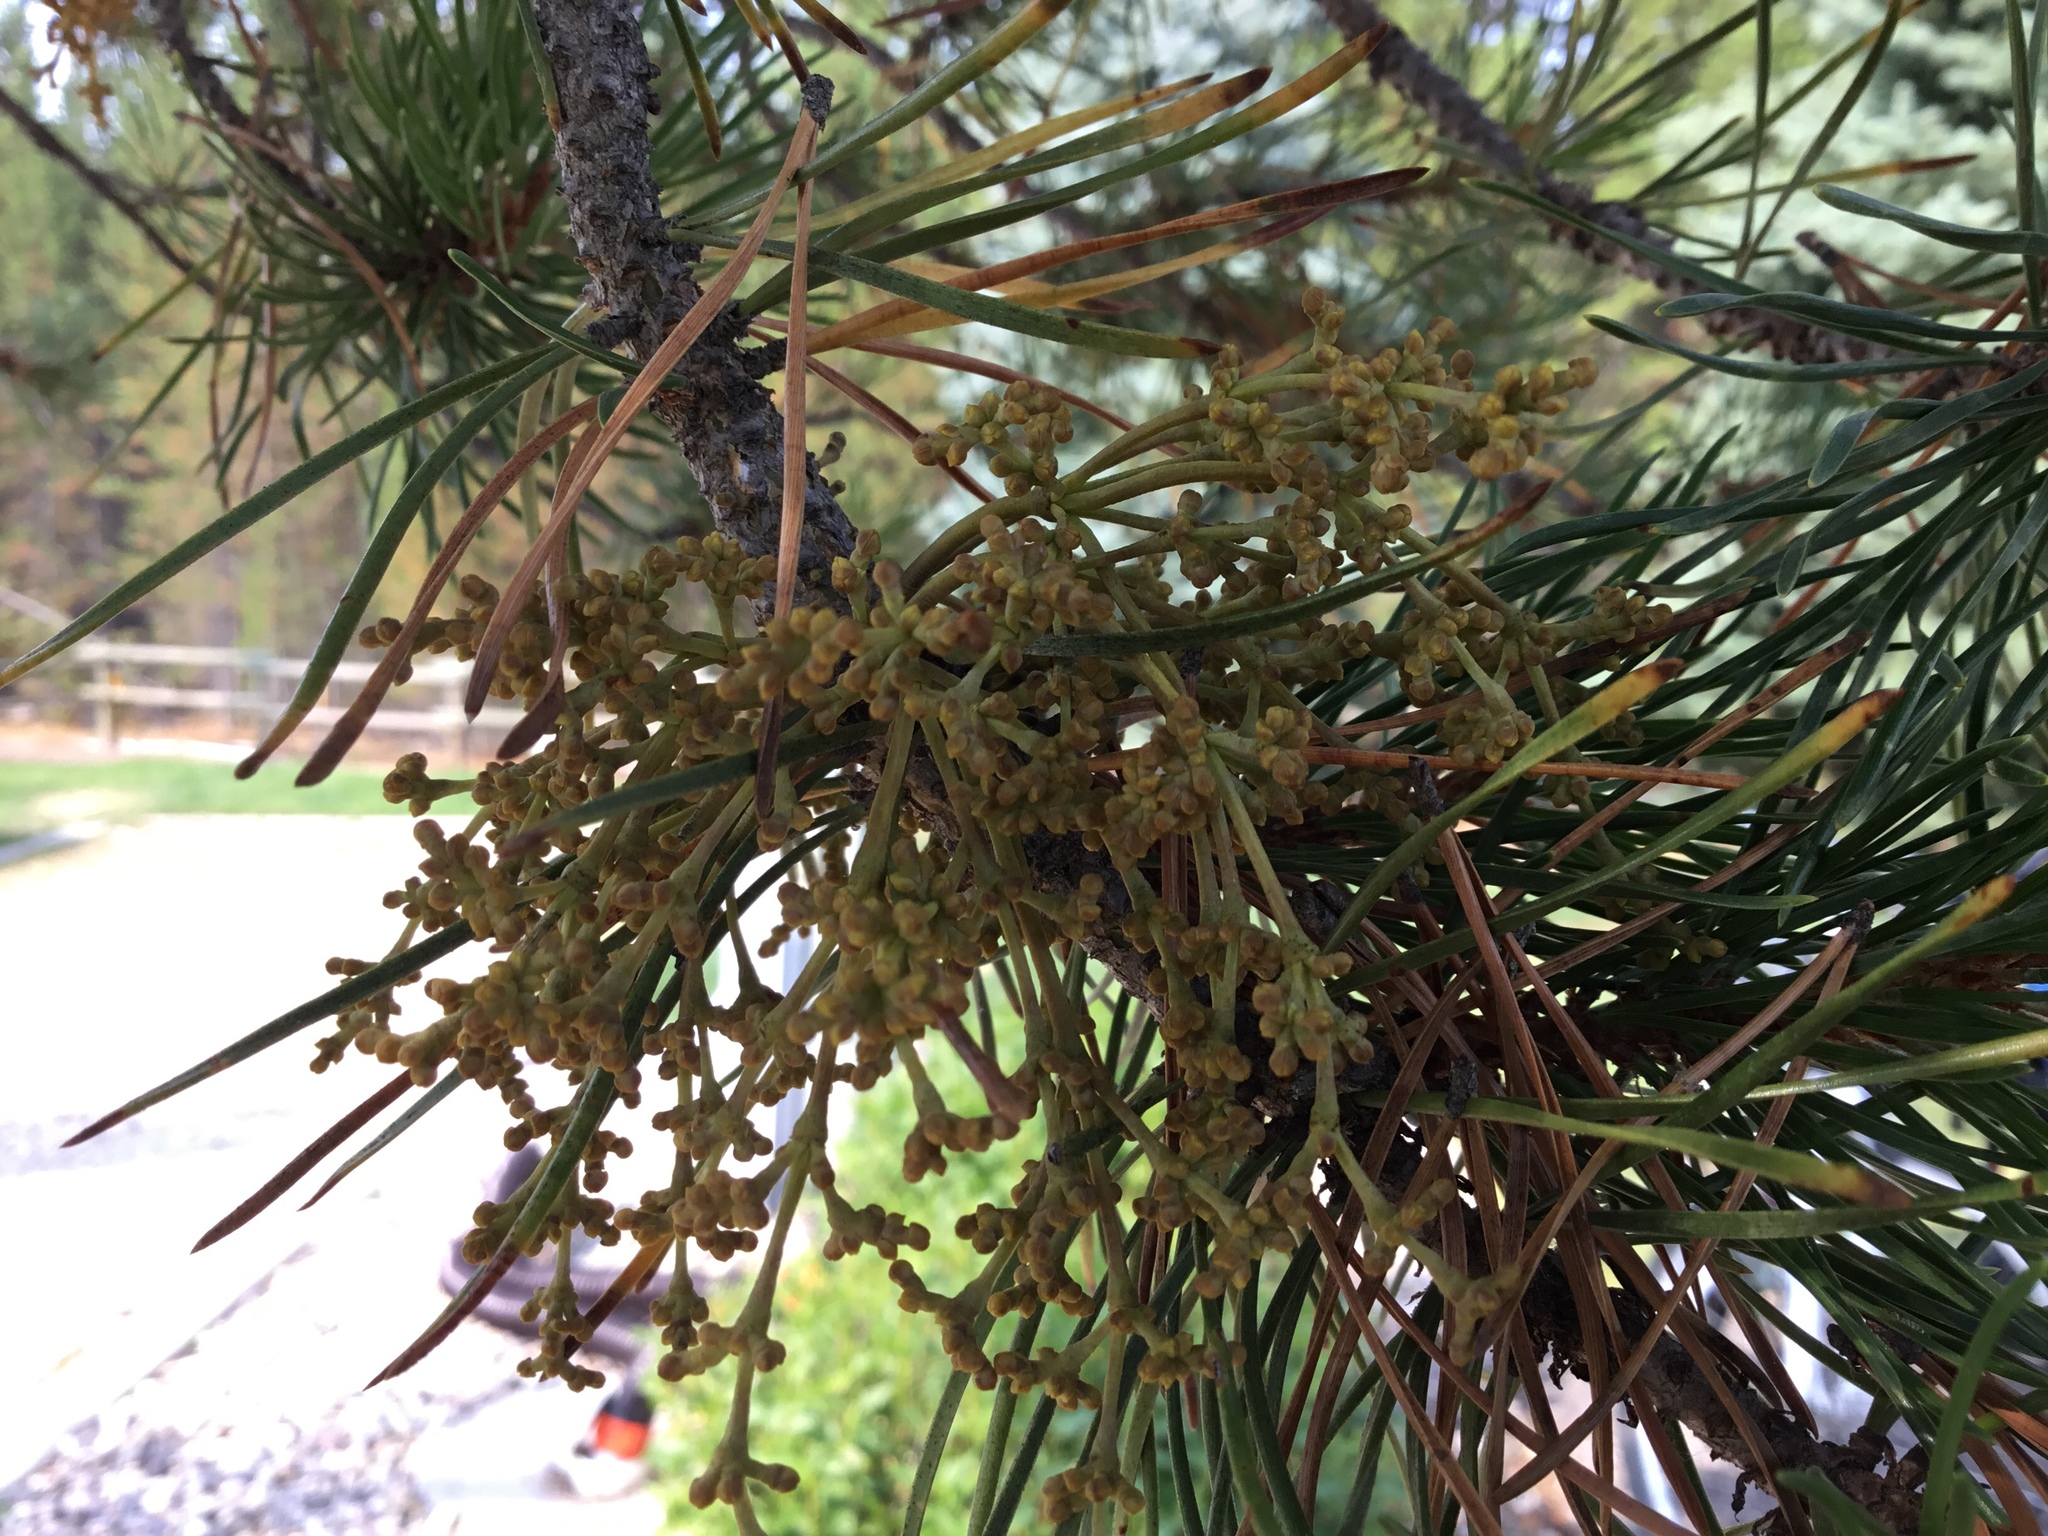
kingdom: Plantae
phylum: Tracheophyta
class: Magnoliopsida
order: Santalales
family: Viscaceae
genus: Arceuthobium
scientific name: Arceuthobium campylopodum
